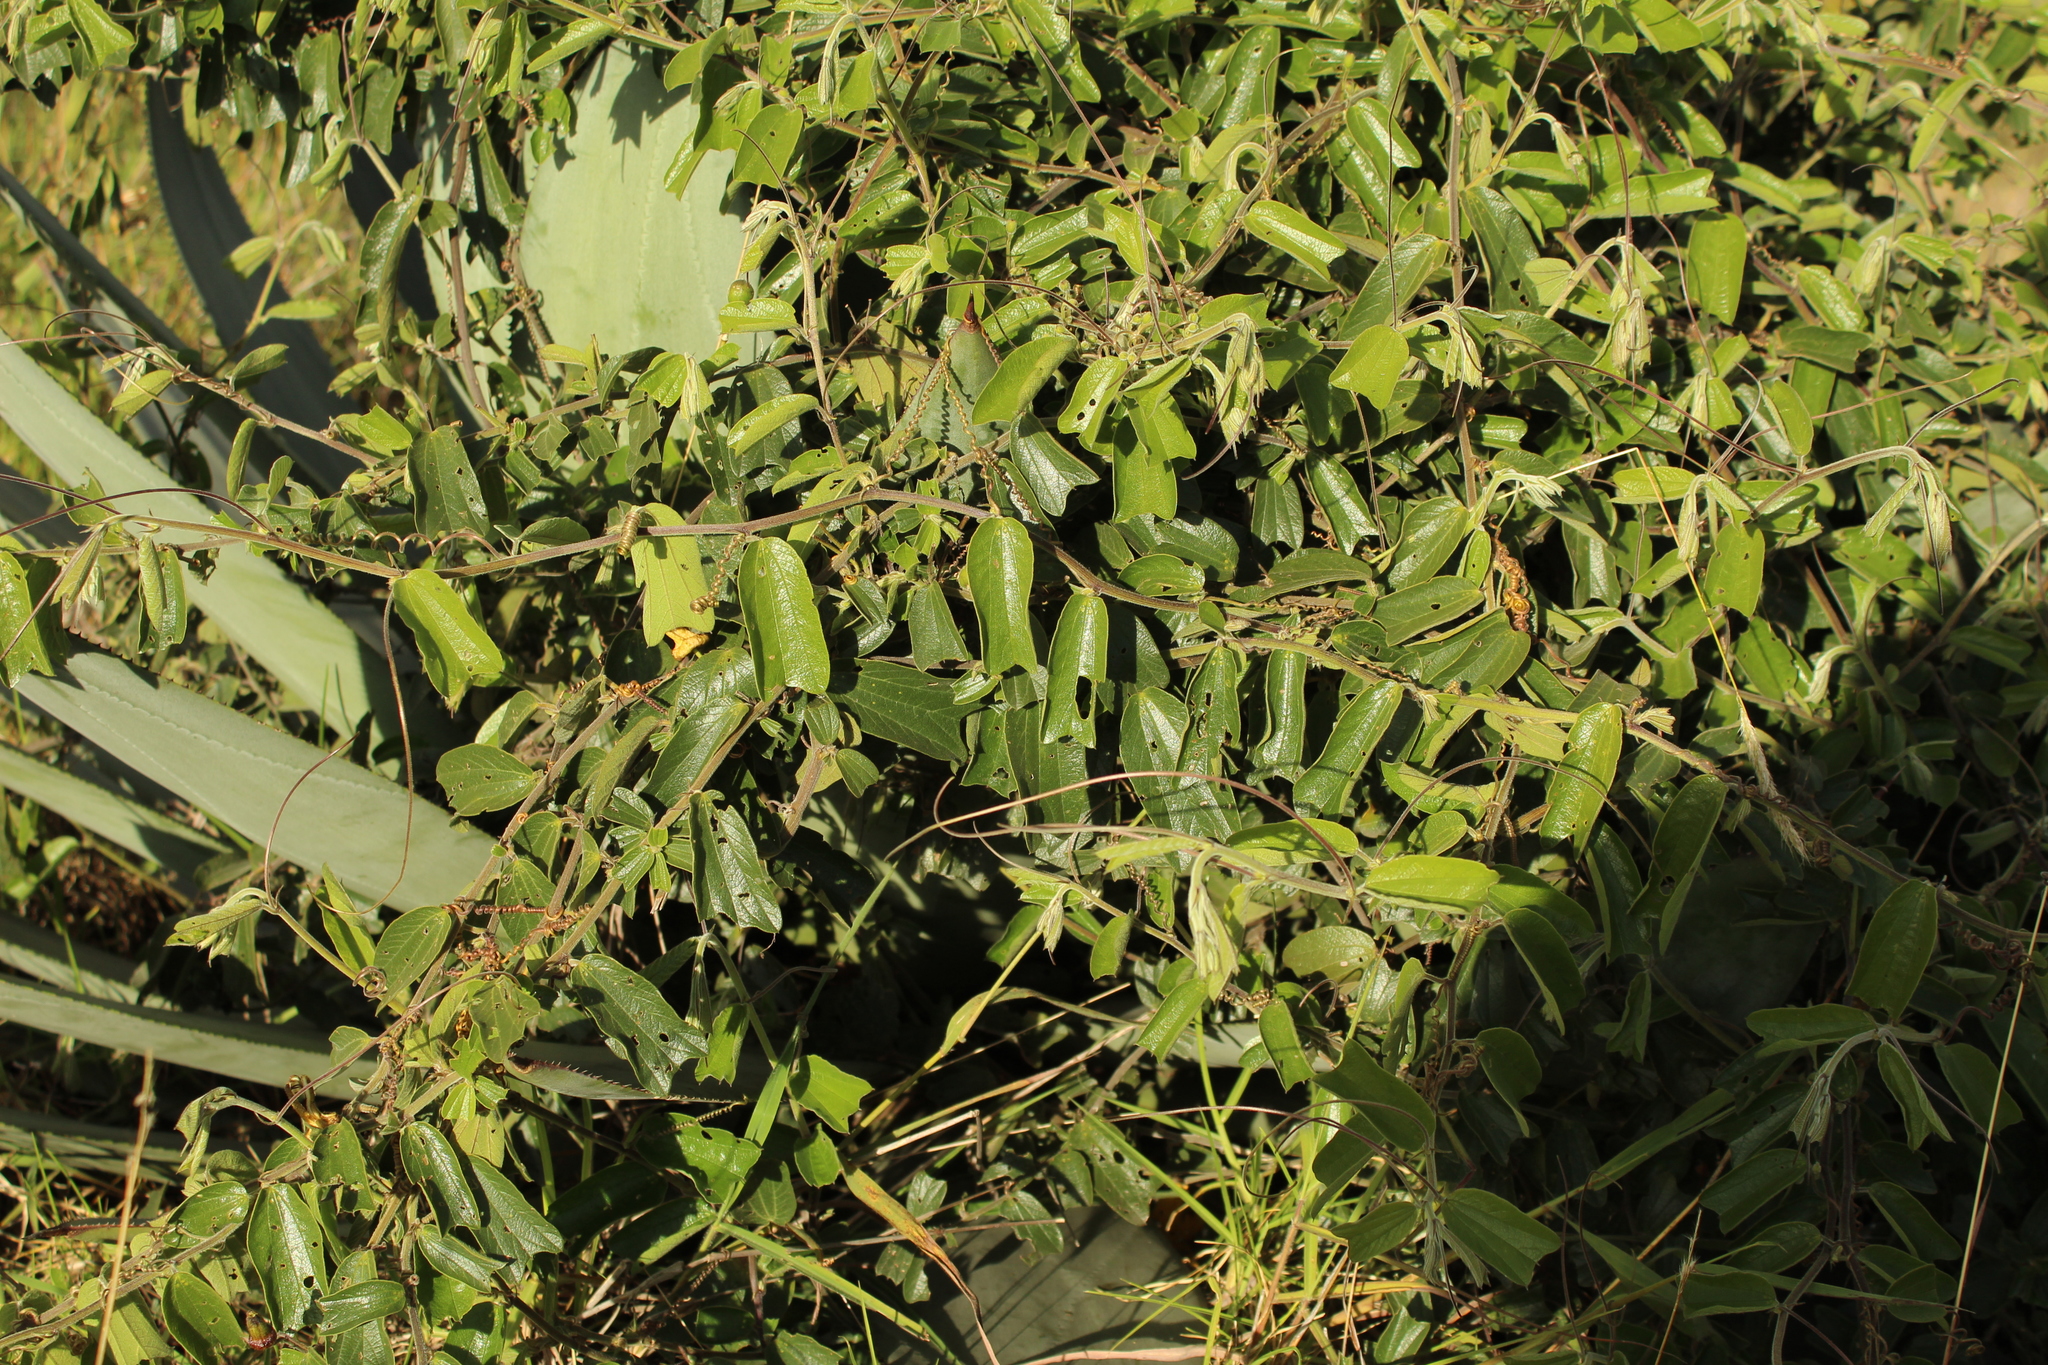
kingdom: Plantae
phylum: Tracheophyta
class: Magnoliopsida
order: Malpighiales
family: Passifloraceae
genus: Passiflora
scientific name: Passiflora bogotensis
